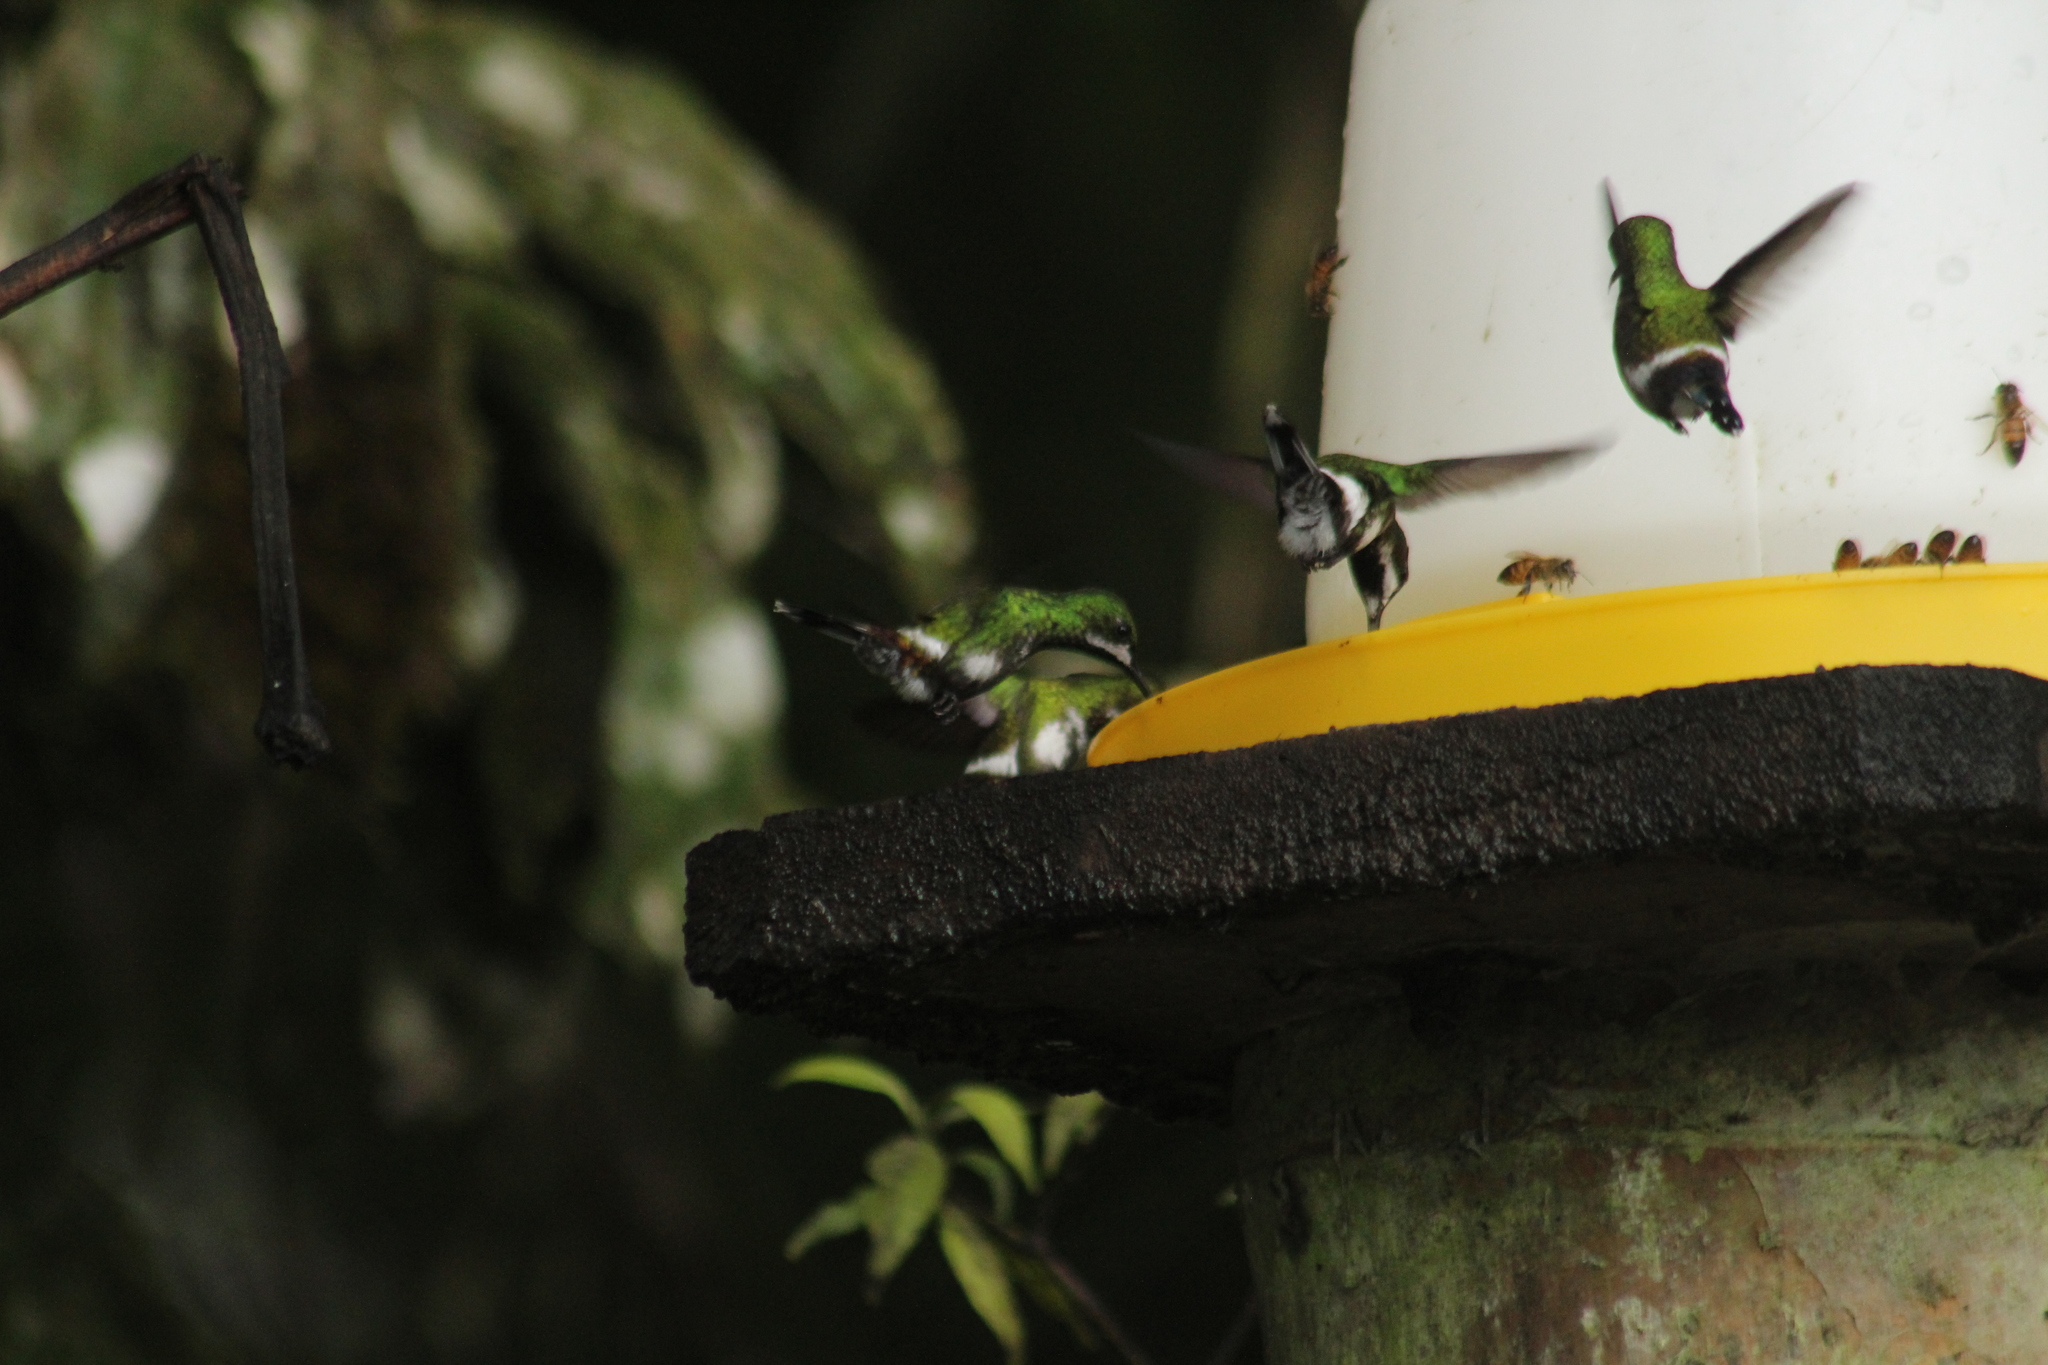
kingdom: Animalia
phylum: Chordata
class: Aves
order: Apodiformes
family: Trochilidae
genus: Discosura
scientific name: Discosura conversii
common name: Green thorntail
